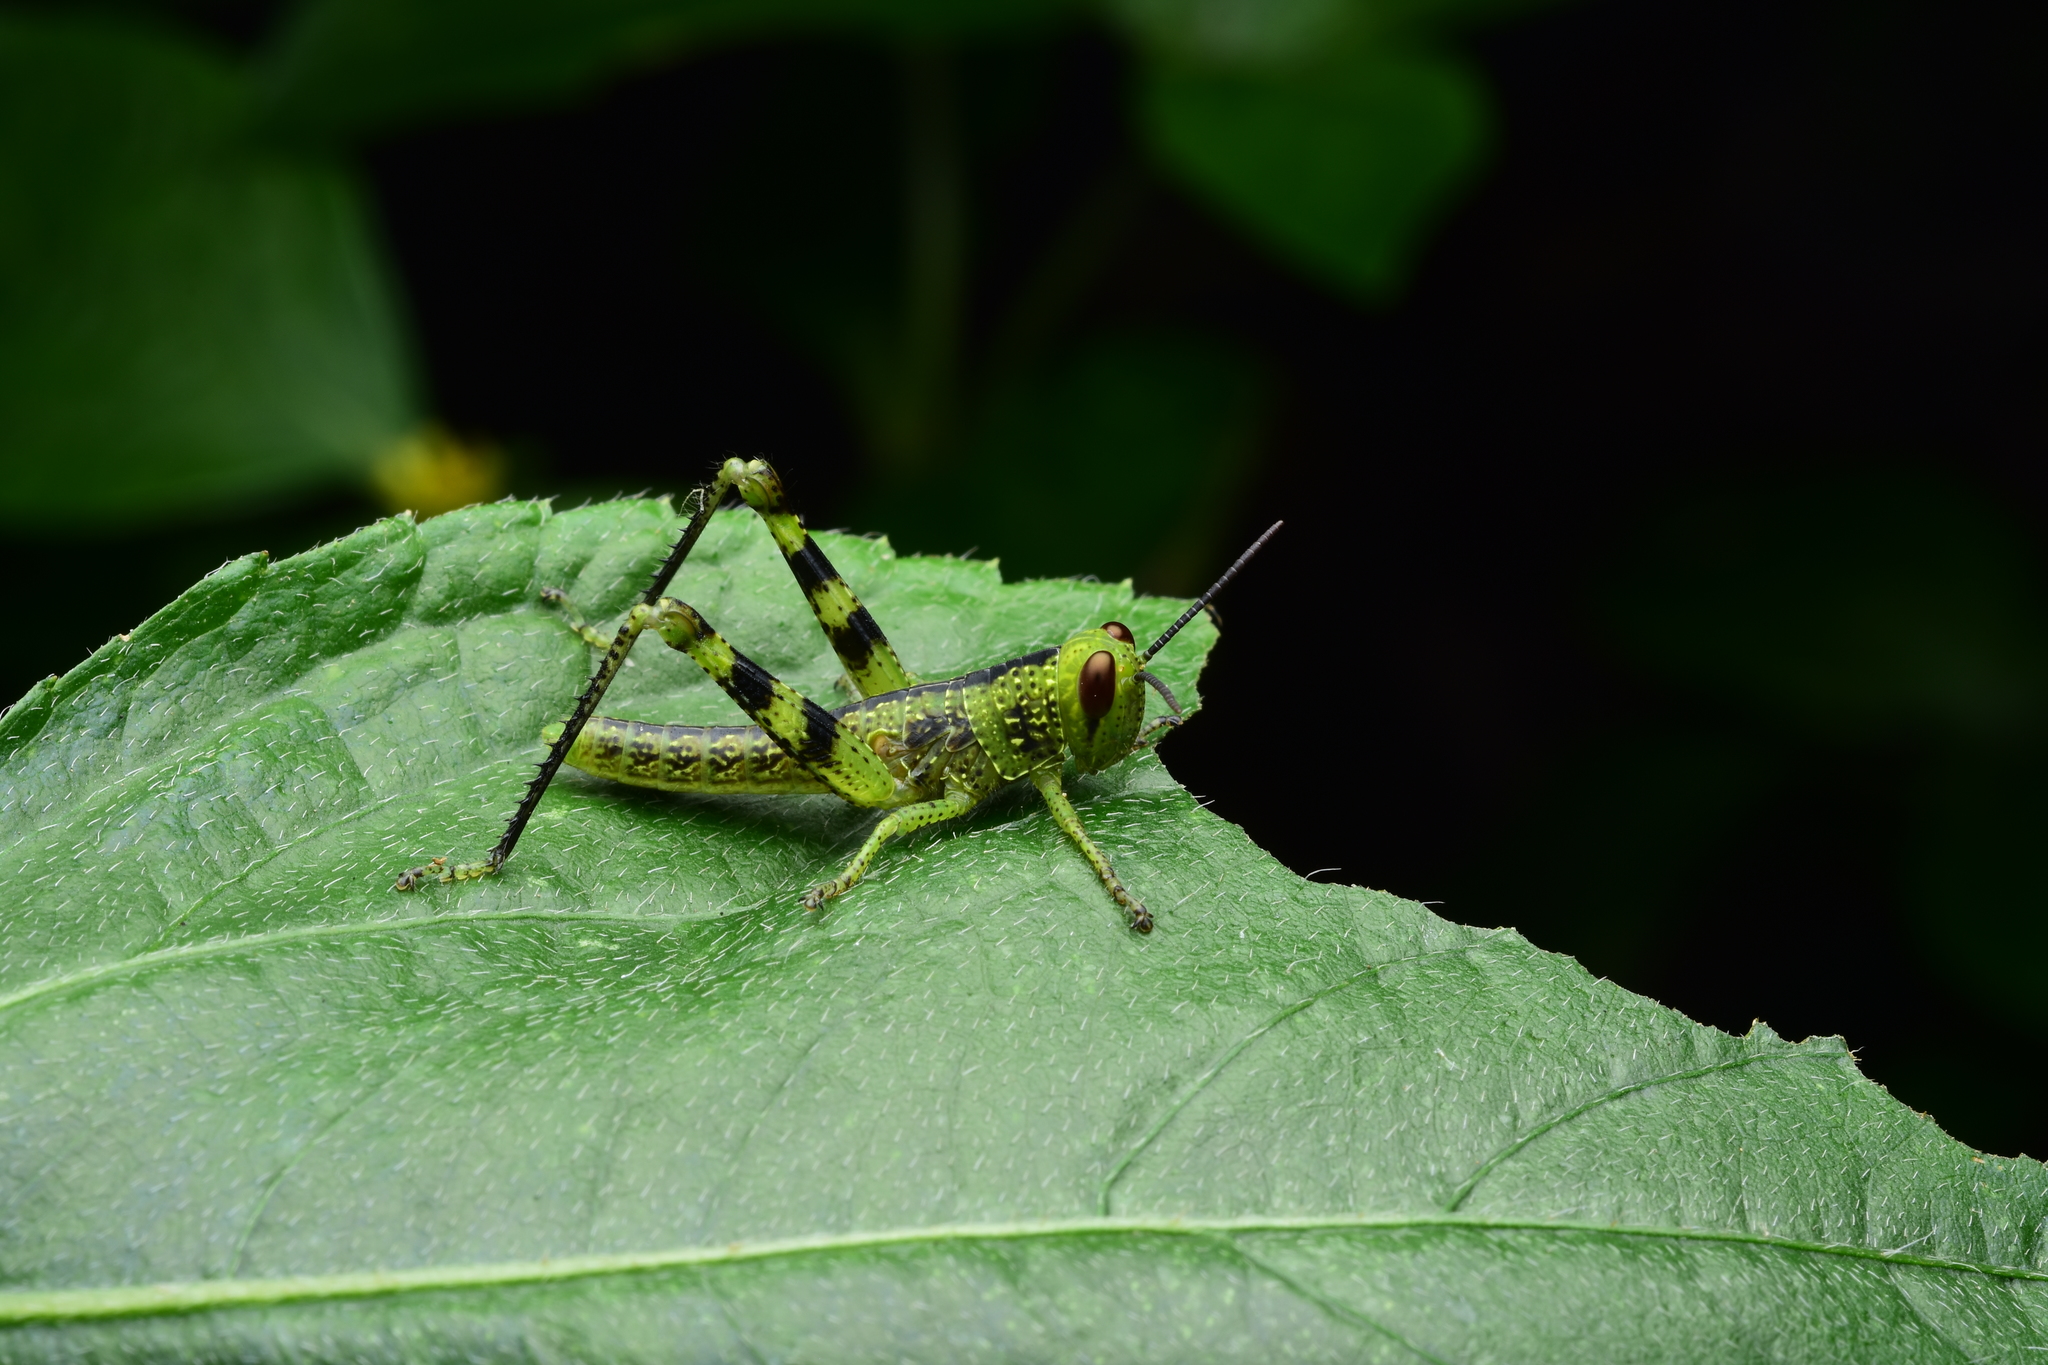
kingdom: Animalia
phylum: Arthropoda
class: Insecta
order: Orthoptera
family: Acrididae
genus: Valanga
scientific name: Valanga irregularis
